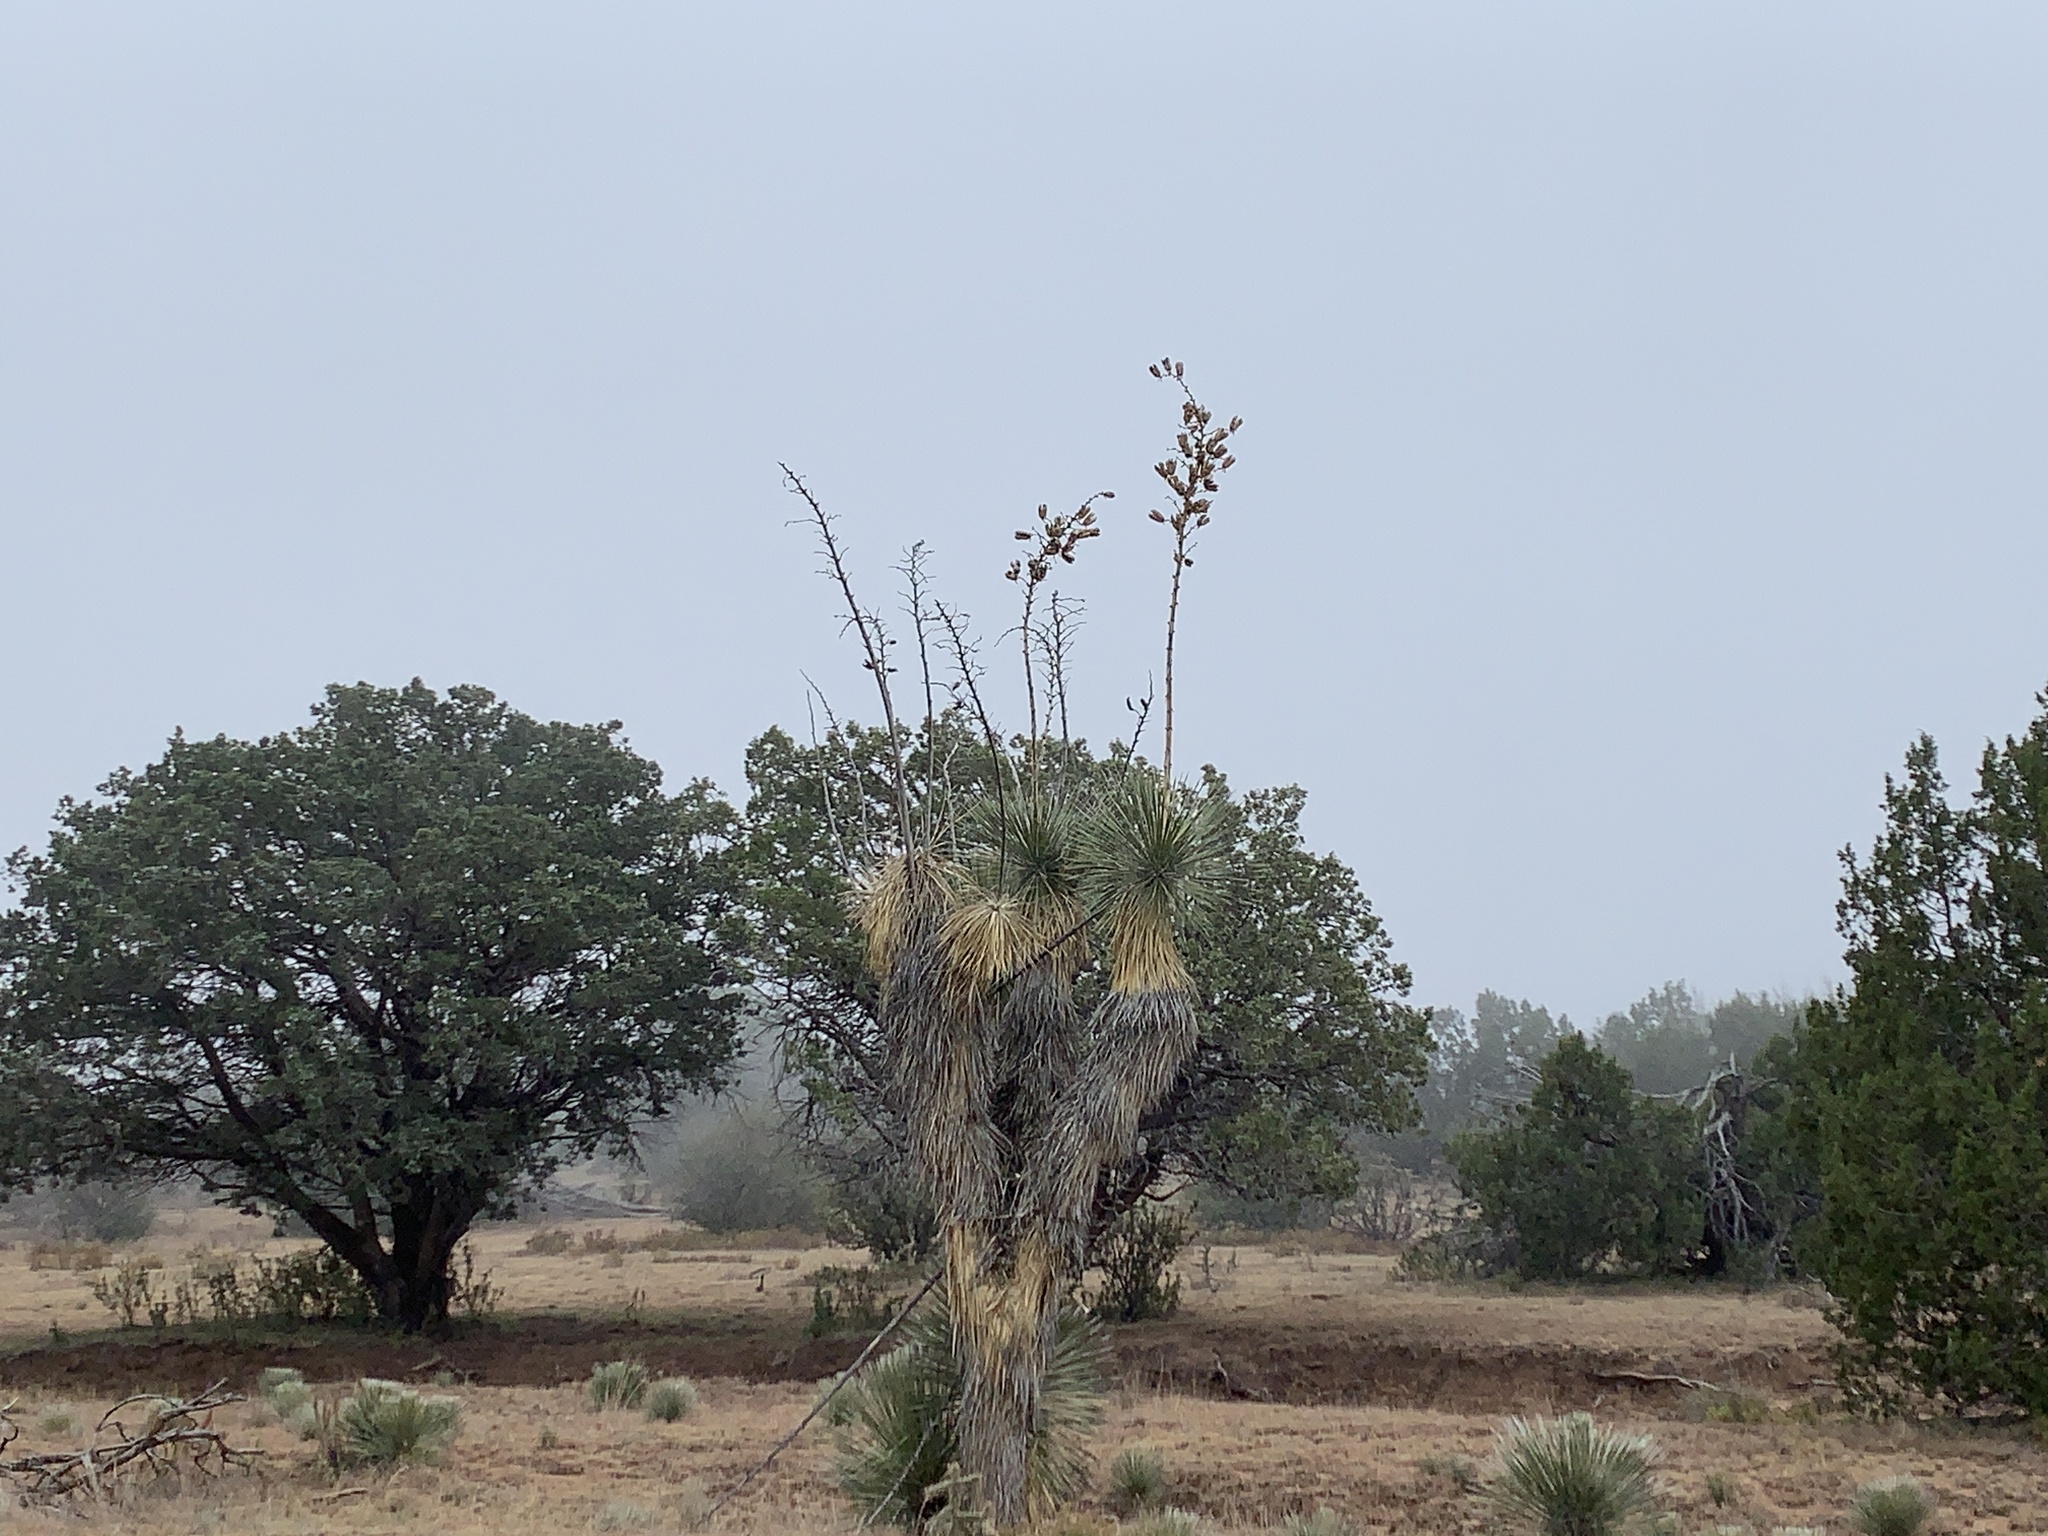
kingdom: Plantae
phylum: Tracheophyta
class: Liliopsida
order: Asparagales
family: Asparagaceae
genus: Yucca
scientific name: Yucca elata
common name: Palmella
